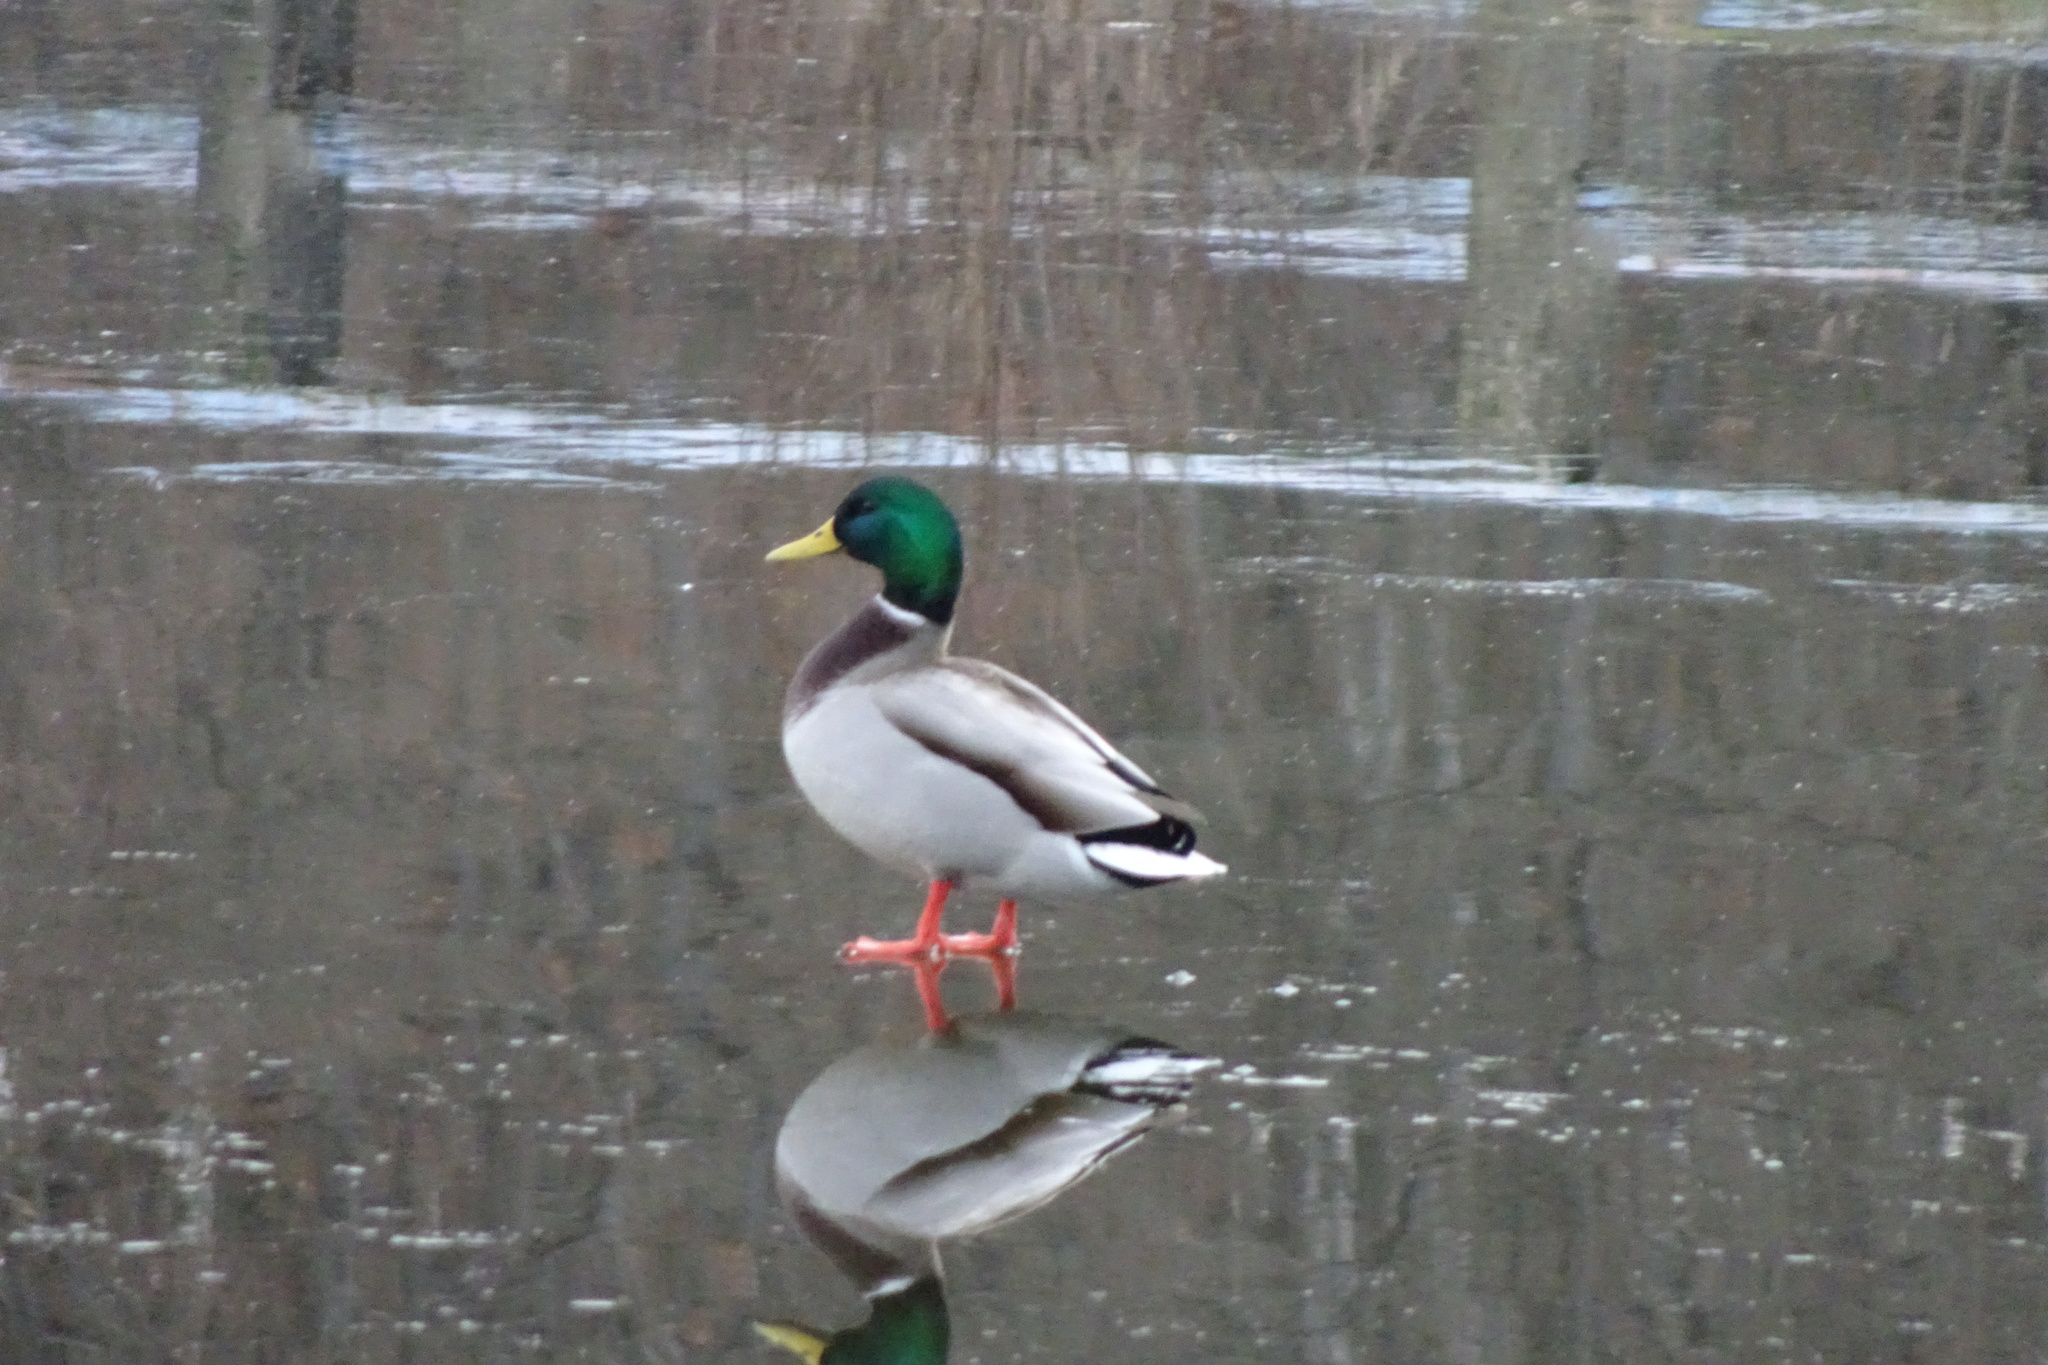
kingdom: Animalia
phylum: Chordata
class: Aves
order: Anseriformes
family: Anatidae
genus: Anas
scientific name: Anas platyrhynchos
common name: Mallard
